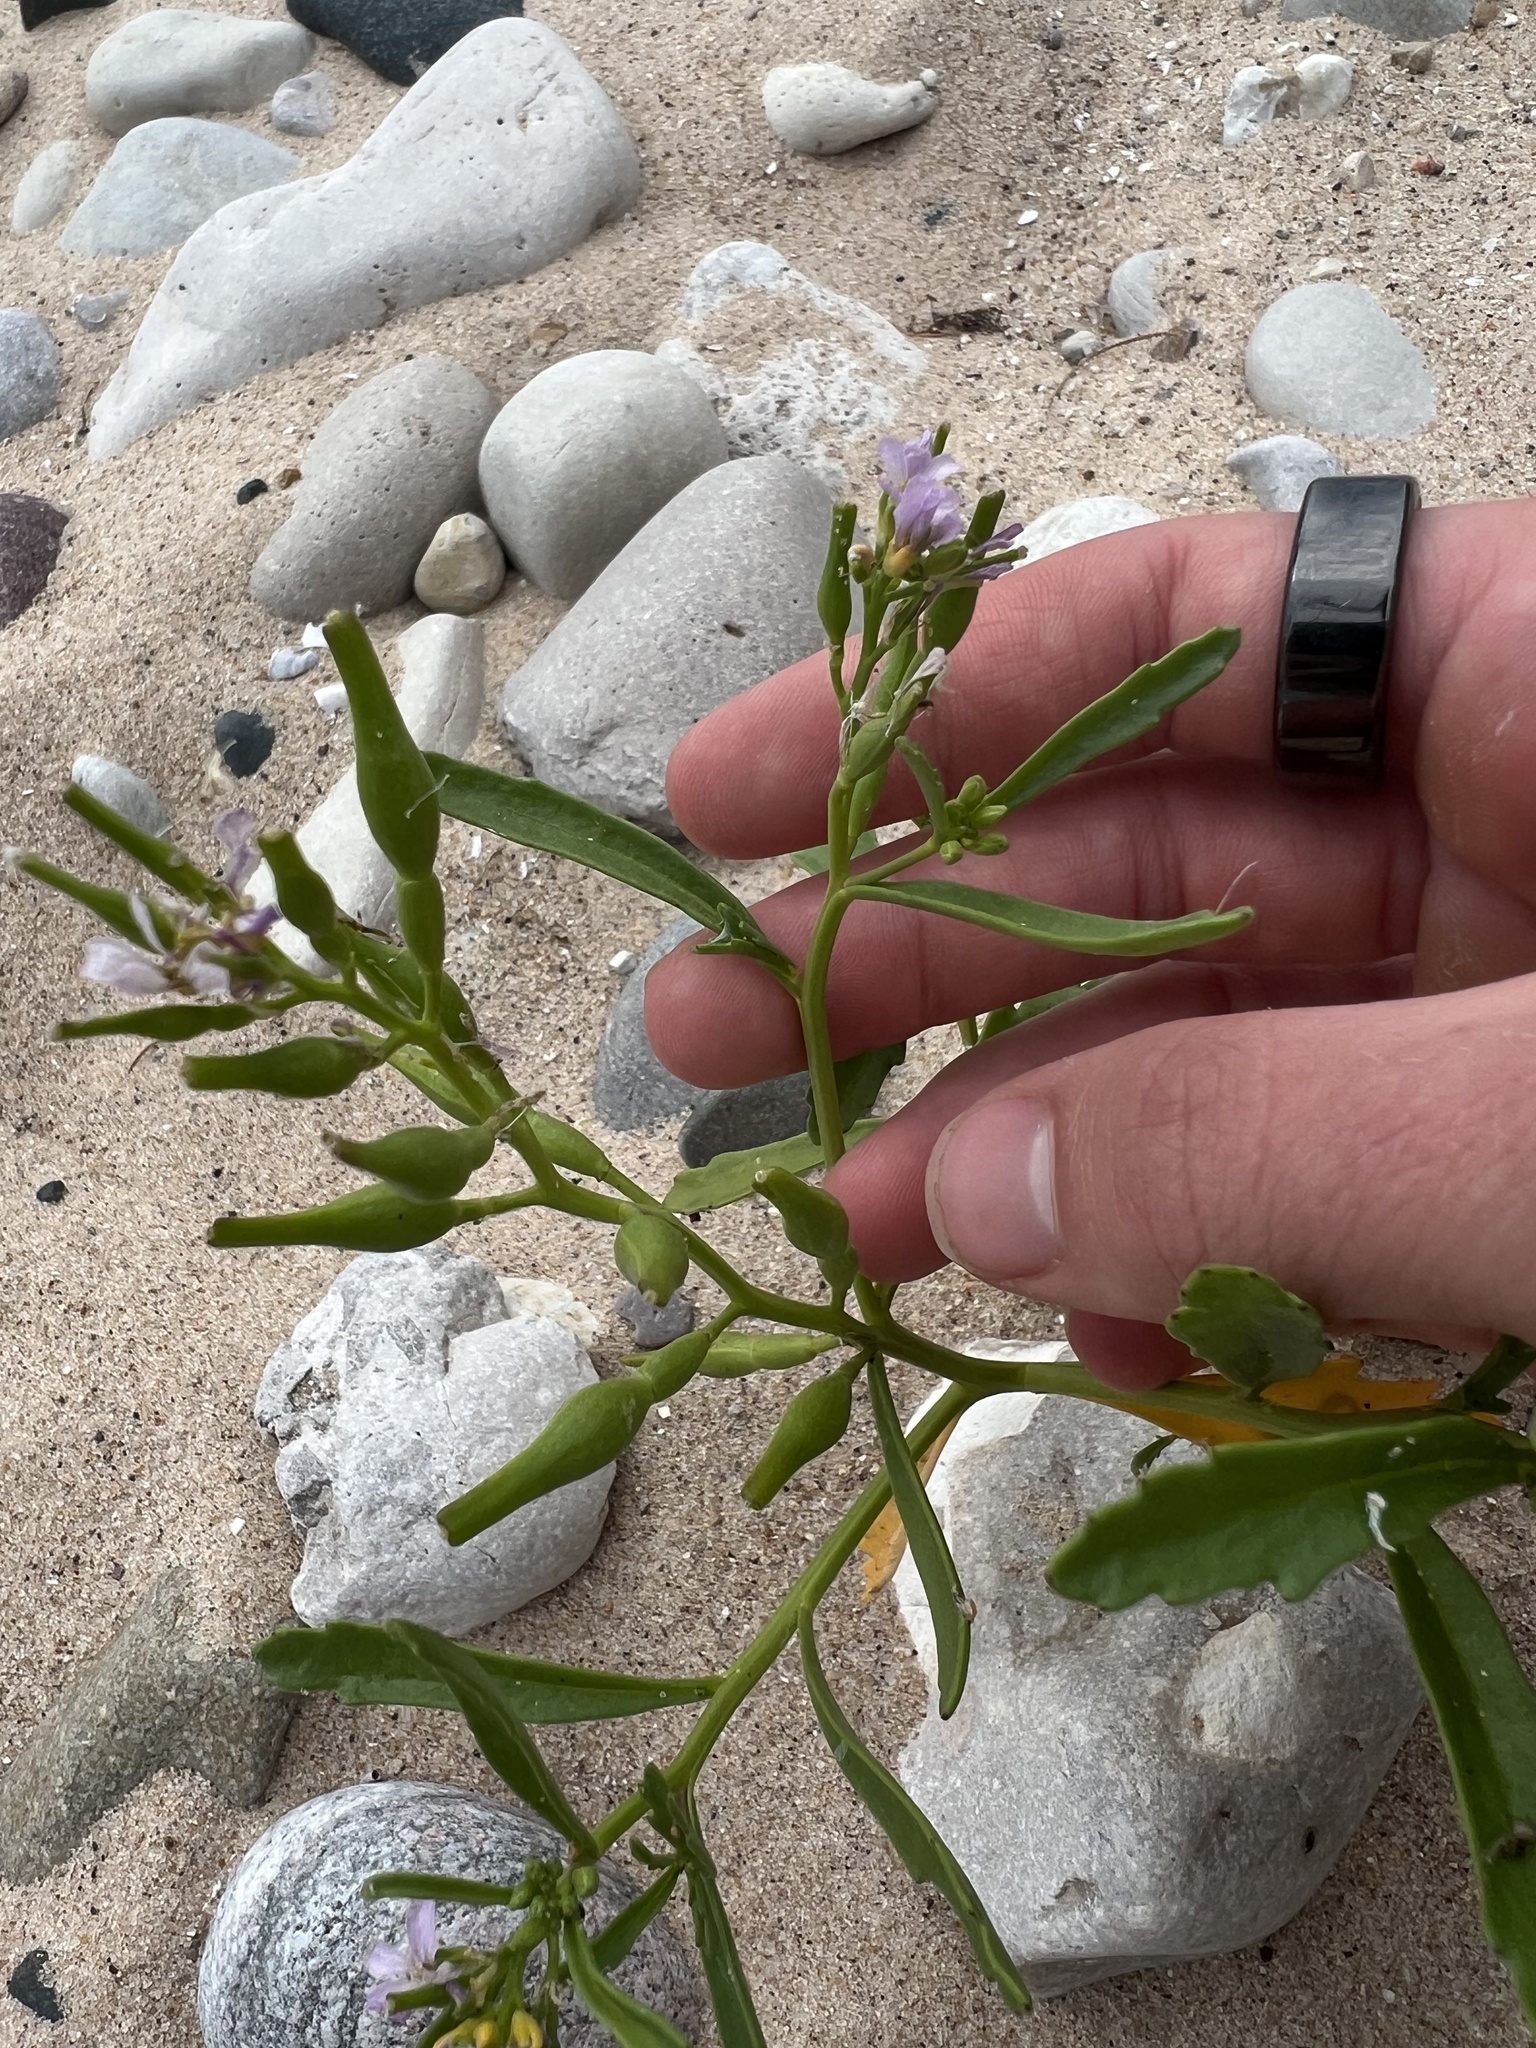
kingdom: Plantae
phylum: Tracheophyta
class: Magnoliopsida
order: Brassicales
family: Brassicaceae
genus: Cakile
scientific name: Cakile edentula
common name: American sea rocket
